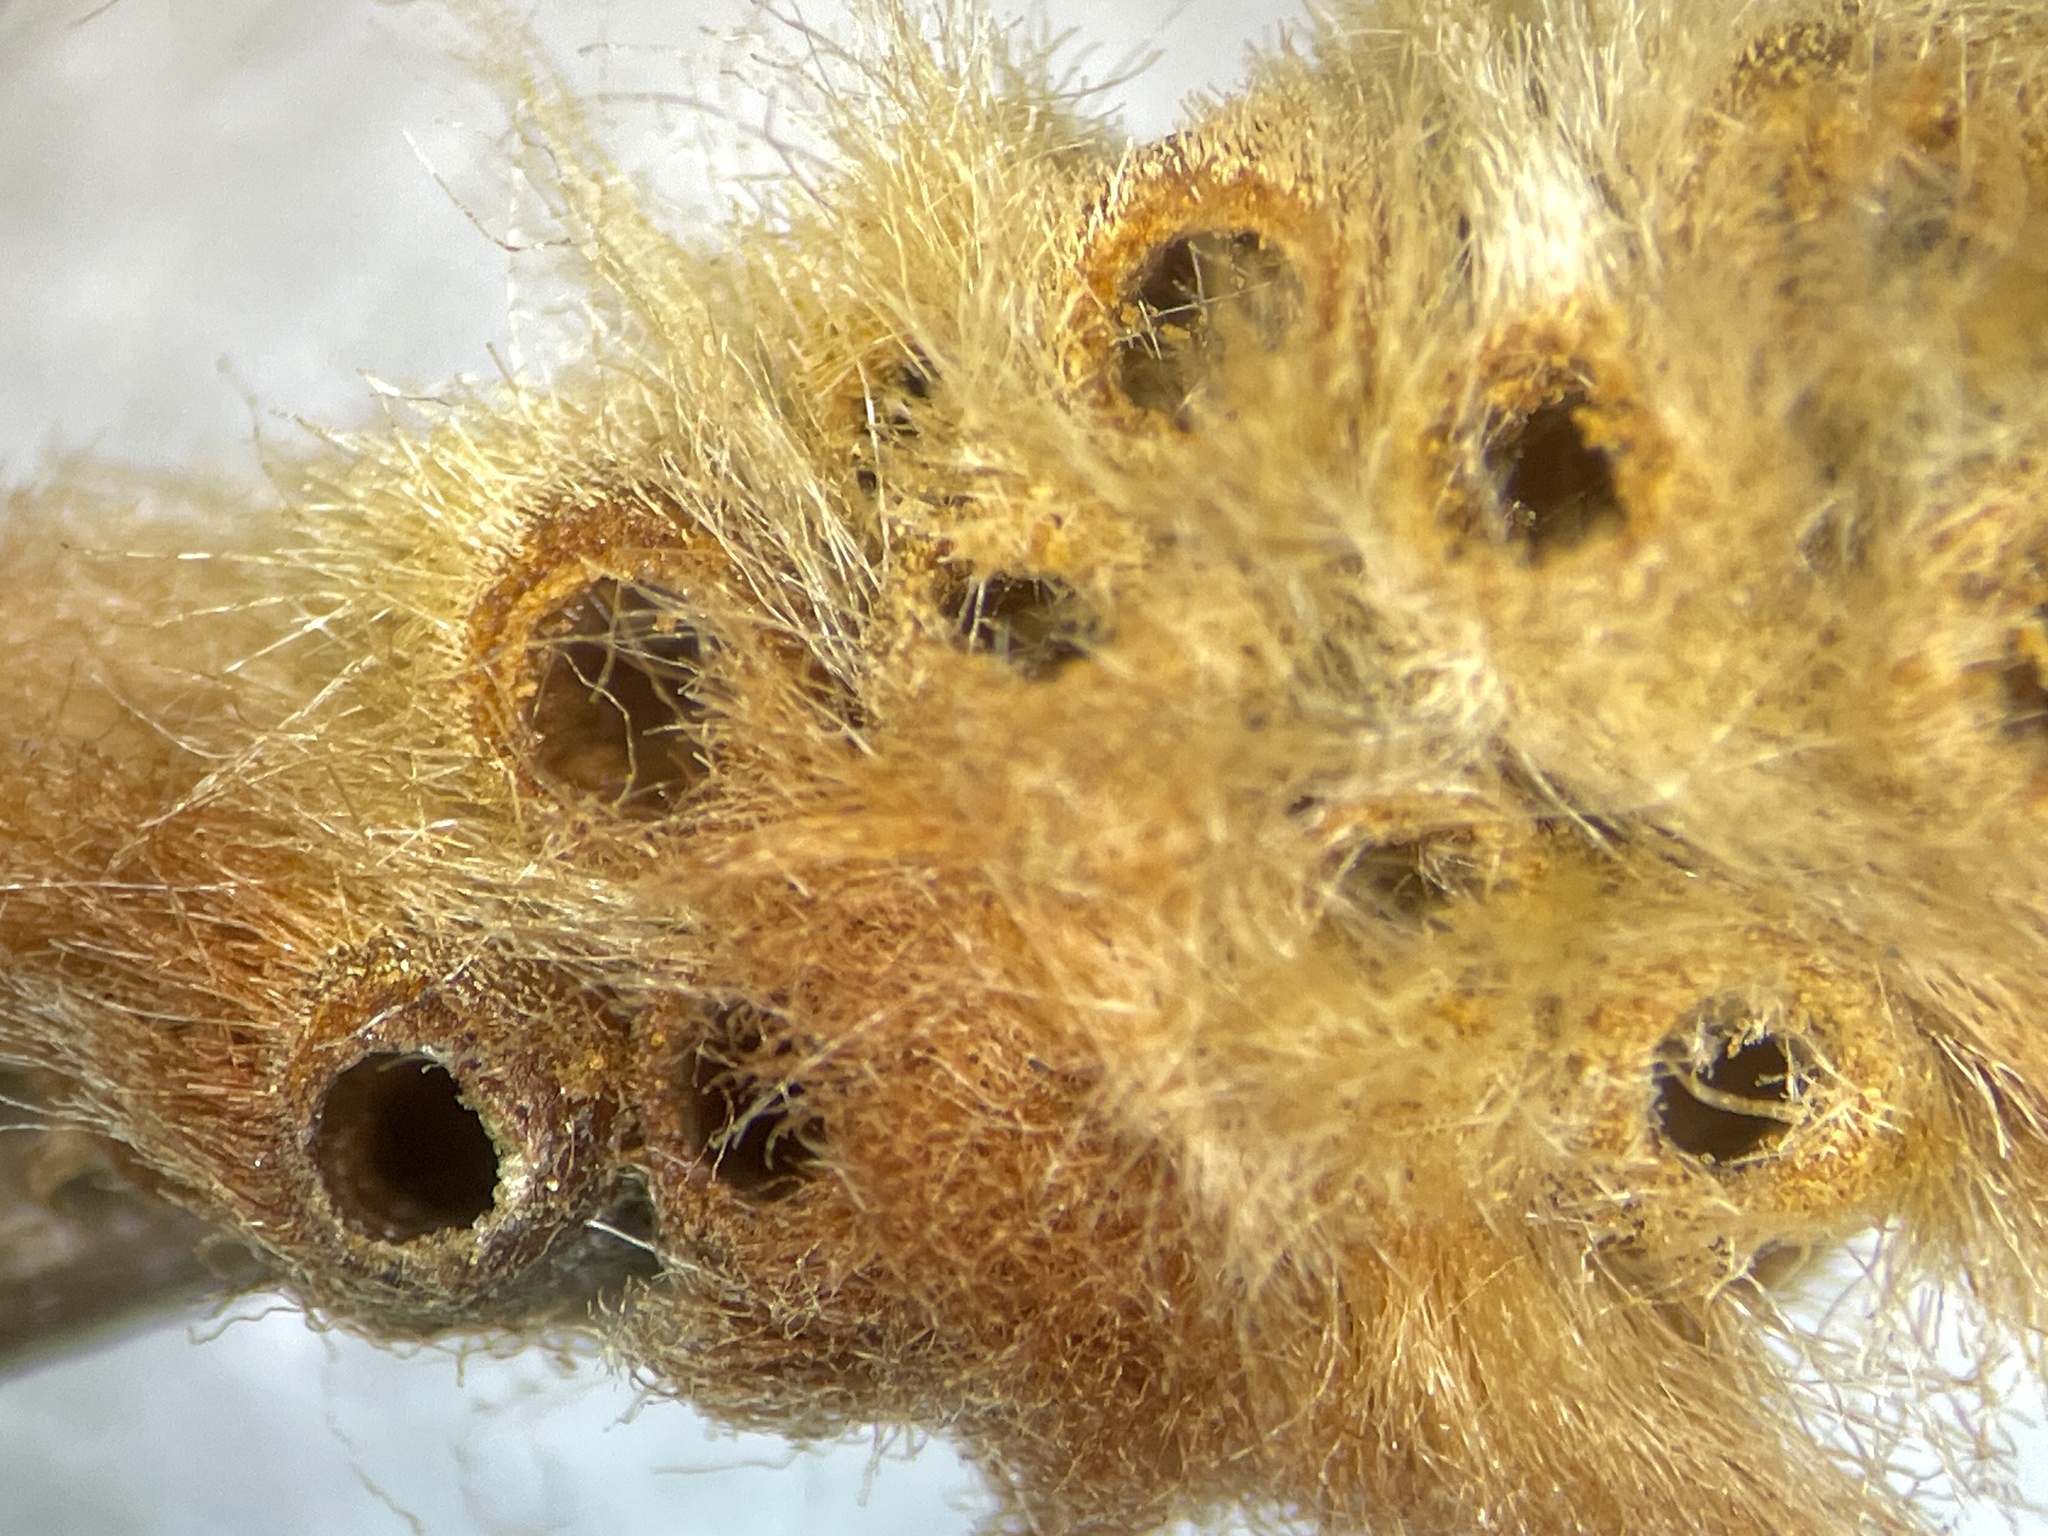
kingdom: Animalia
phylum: Arthropoda
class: Insecta
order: Hymenoptera
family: Cynipidae
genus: Andricus
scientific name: Andricus quercusflocci
